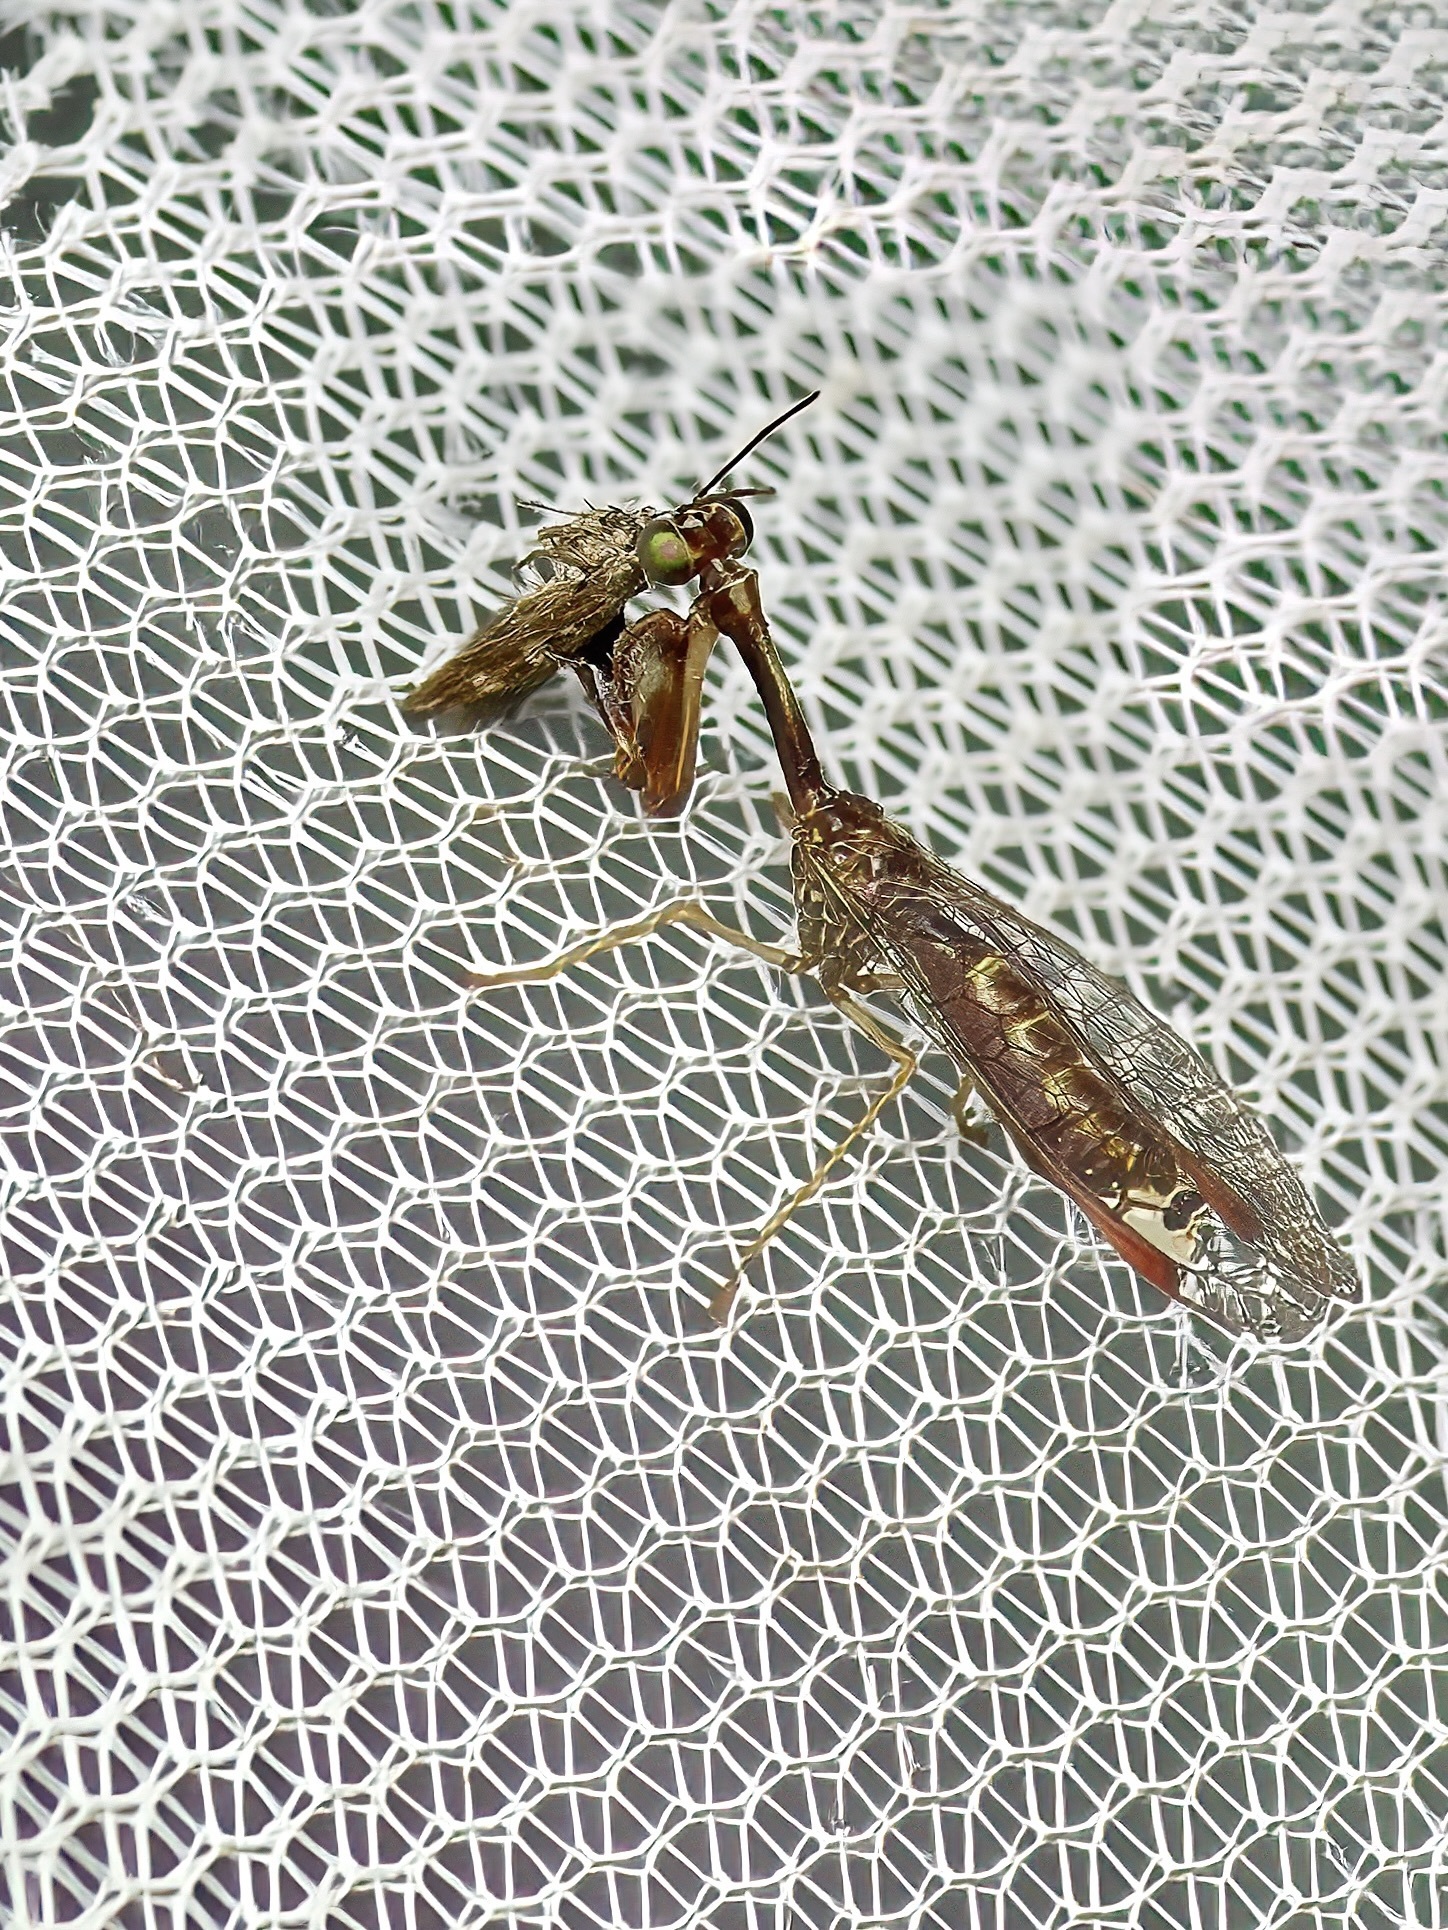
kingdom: Animalia
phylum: Arthropoda
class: Insecta
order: Neuroptera
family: Mantispidae
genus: Leptomantispa
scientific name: Leptomantispa pulchella
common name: Stevens's mantidfly
